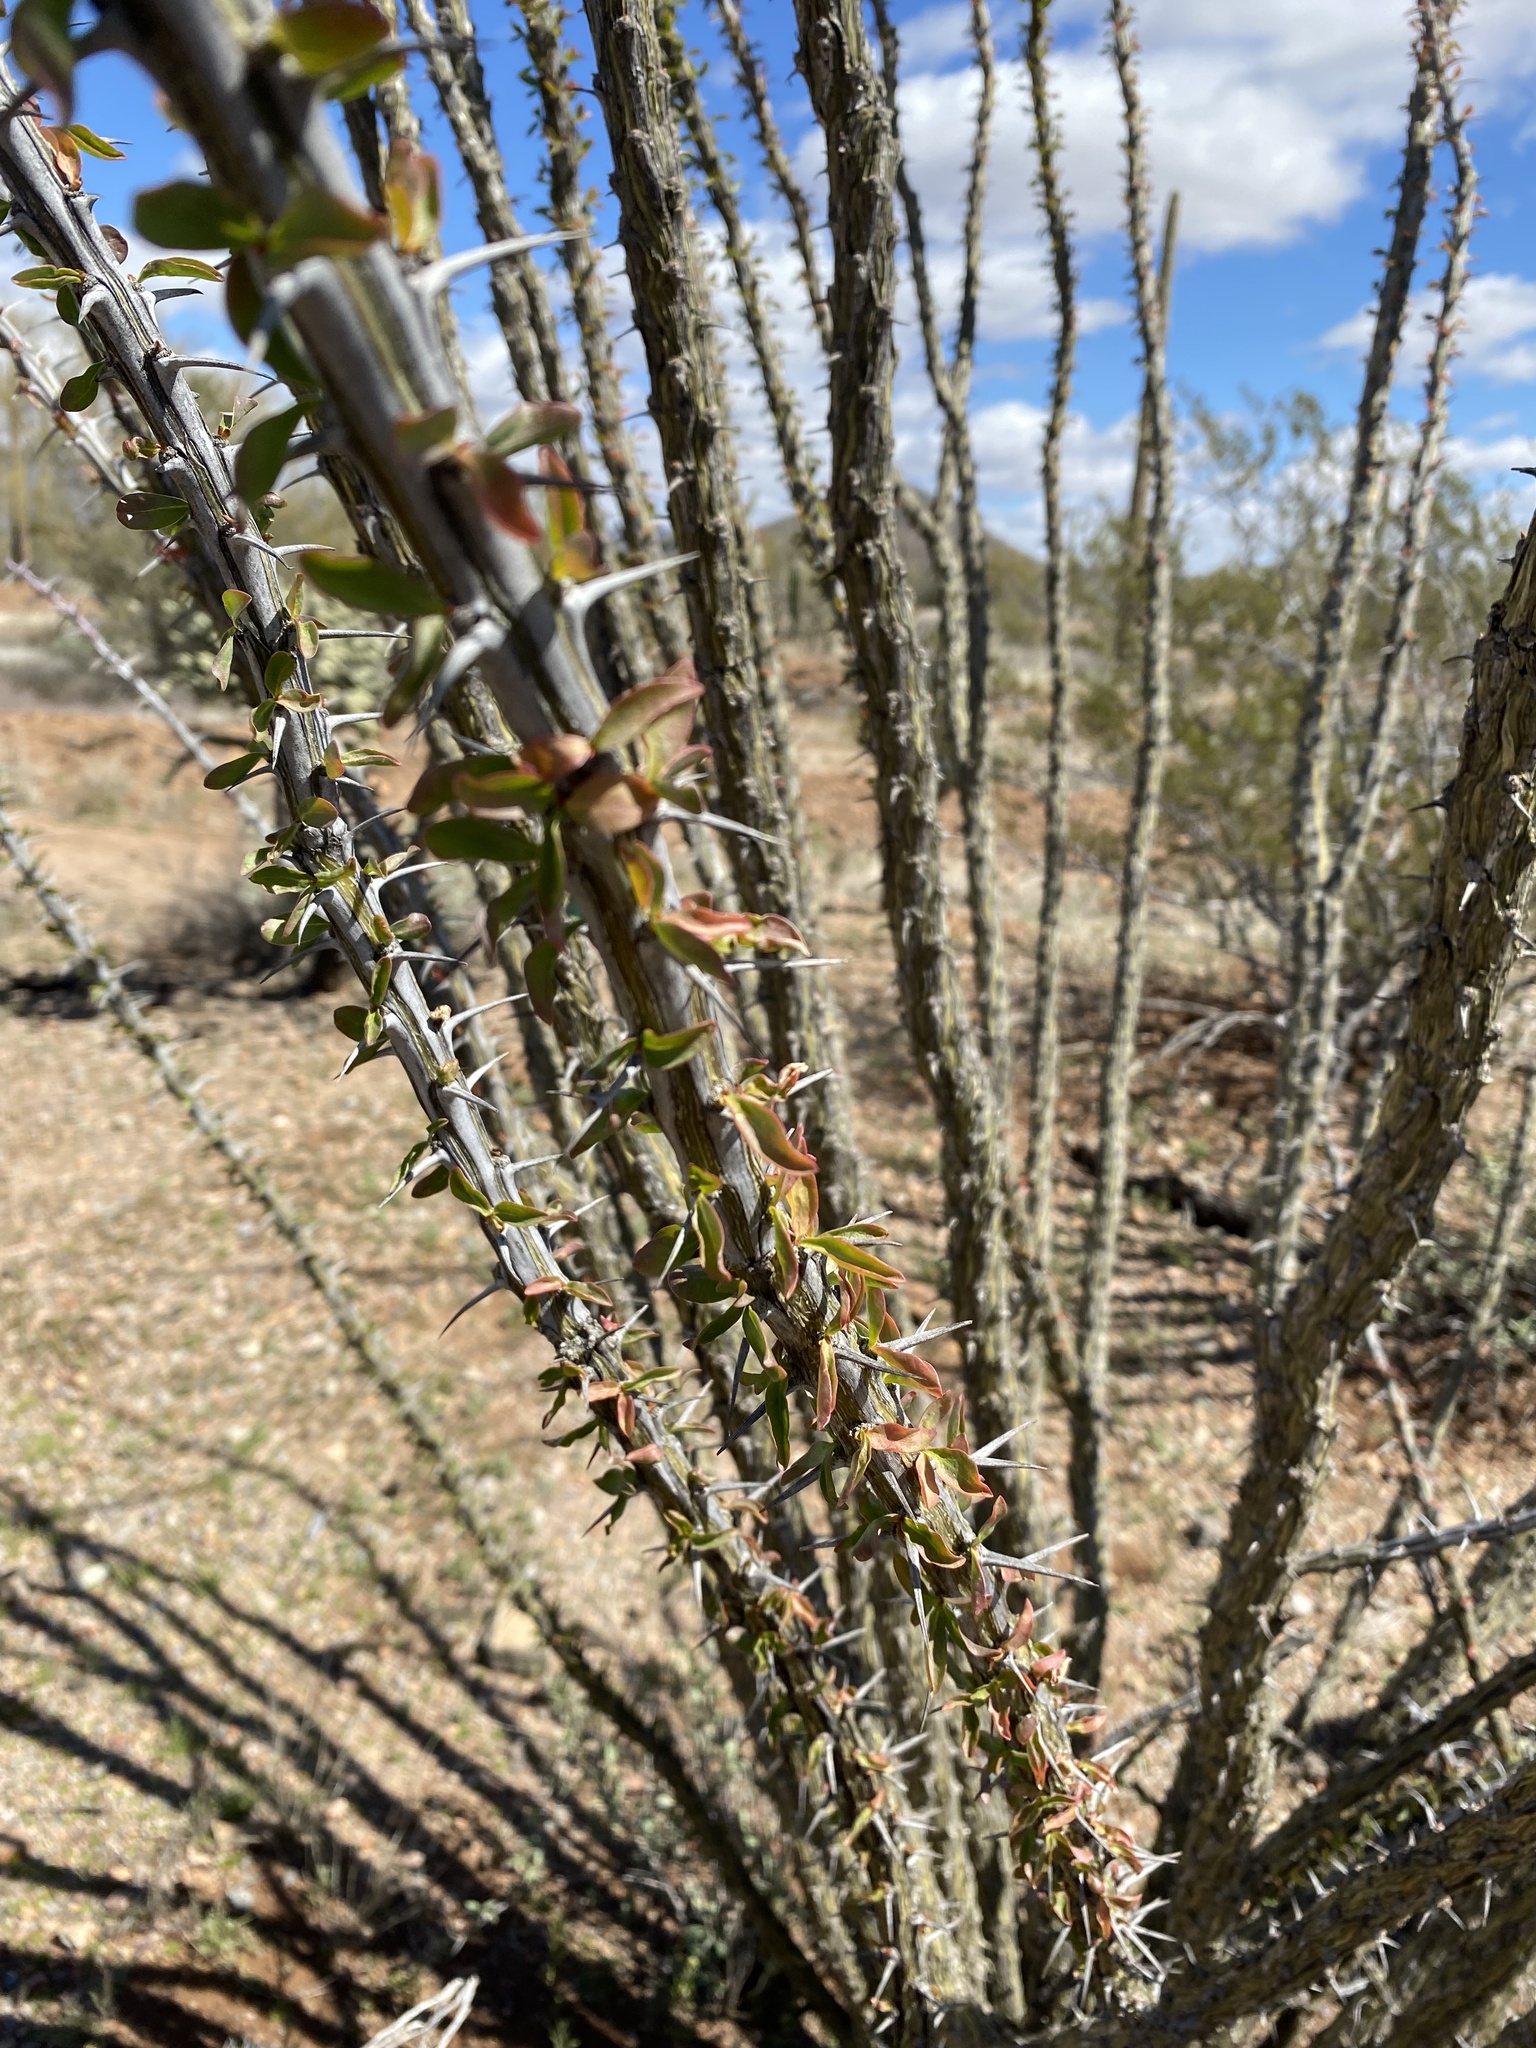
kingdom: Plantae
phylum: Tracheophyta
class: Magnoliopsida
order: Ericales
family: Fouquieriaceae
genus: Fouquieria
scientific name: Fouquieria splendens
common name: Vine-cactus
